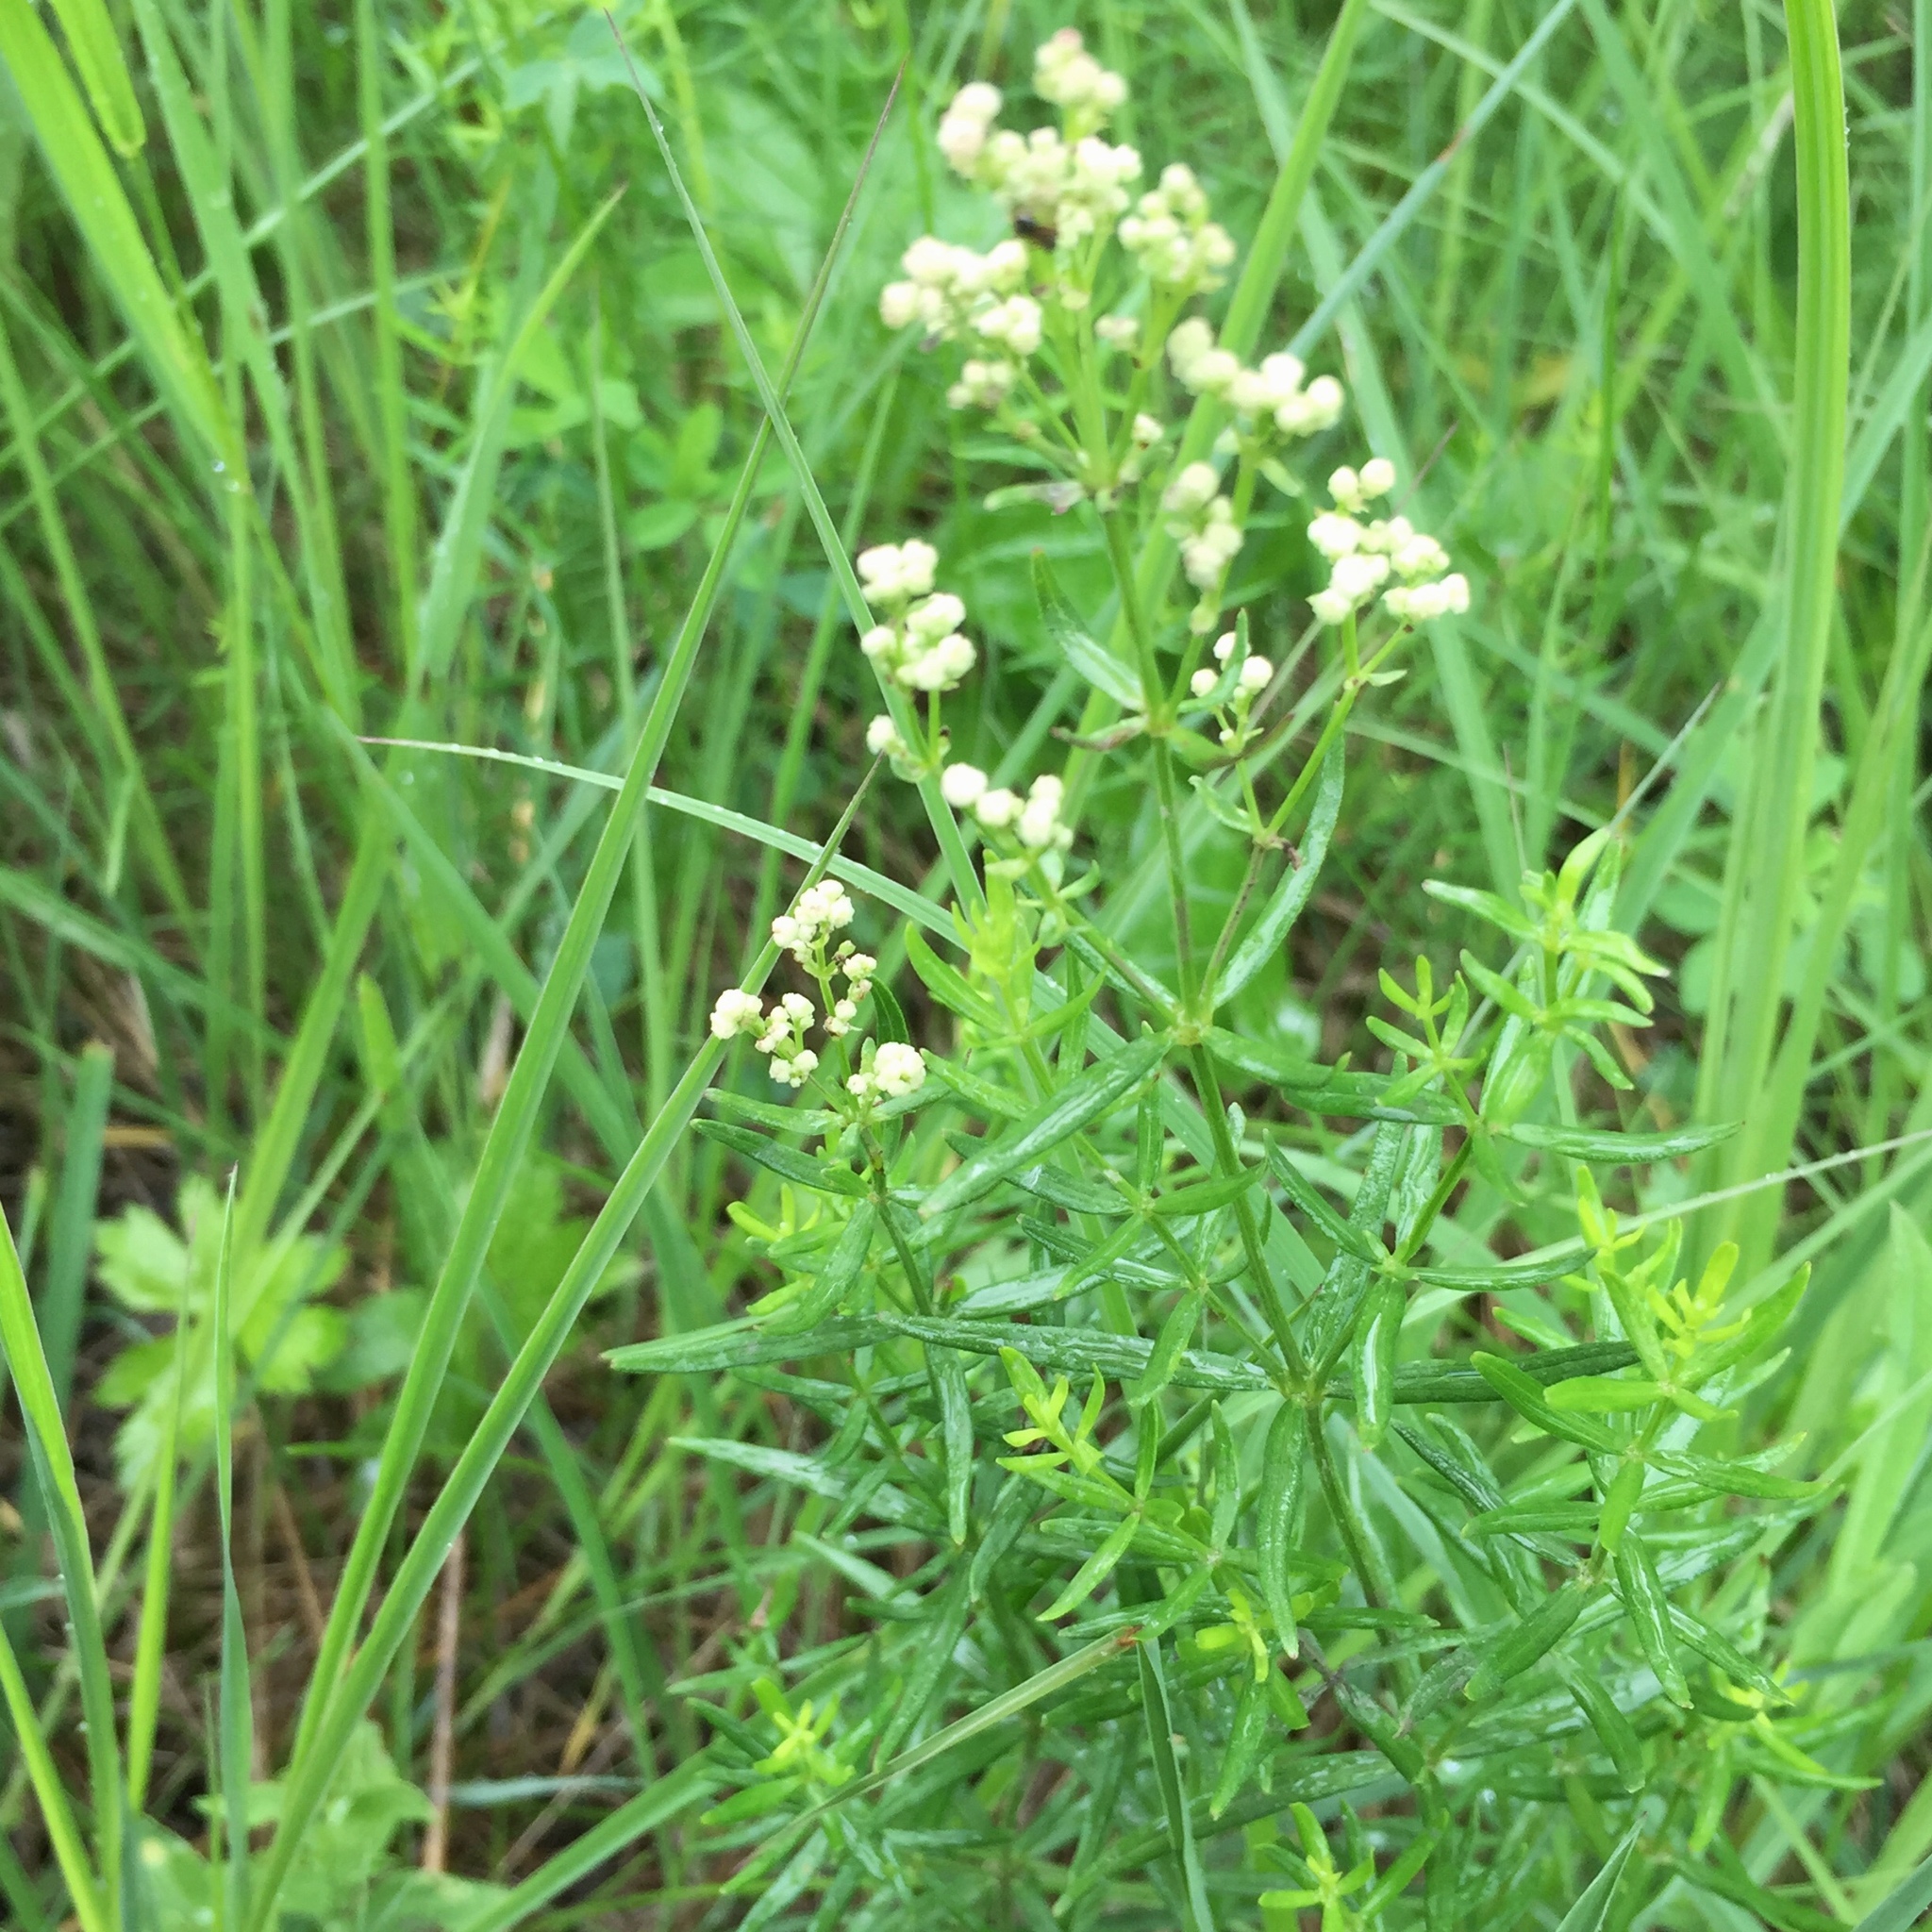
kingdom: Plantae
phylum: Tracheophyta
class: Magnoliopsida
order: Gentianales
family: Rubiaceae
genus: Galium
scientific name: Galium boreale
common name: Northern bedstraw
